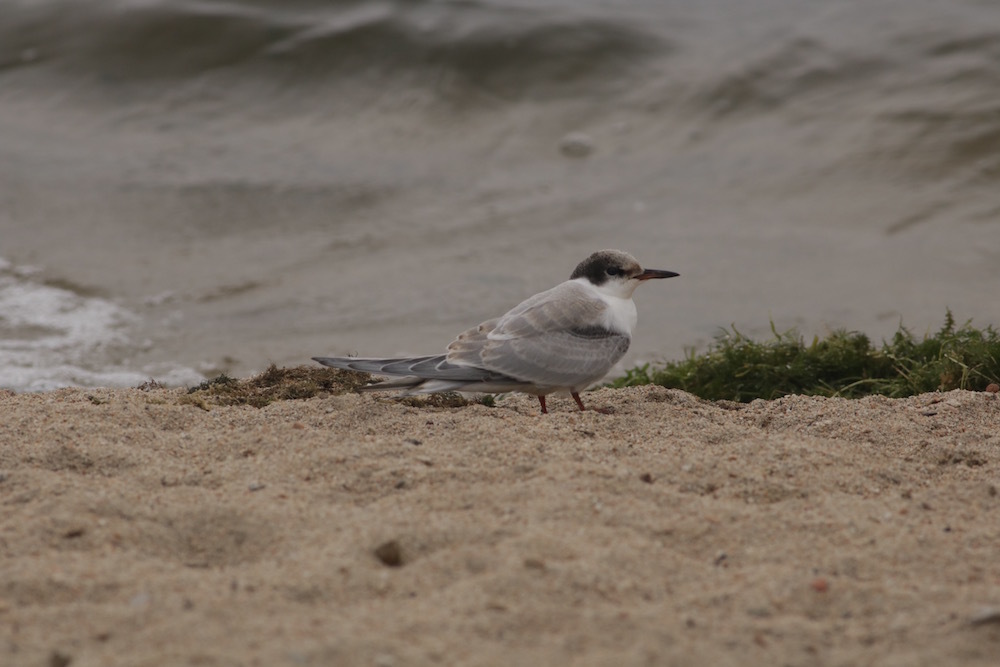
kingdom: Animalia
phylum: Chordata
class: Aves
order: Charadriiformes
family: Laridae
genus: Sterna
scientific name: Sterna hirundo
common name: Common tern
